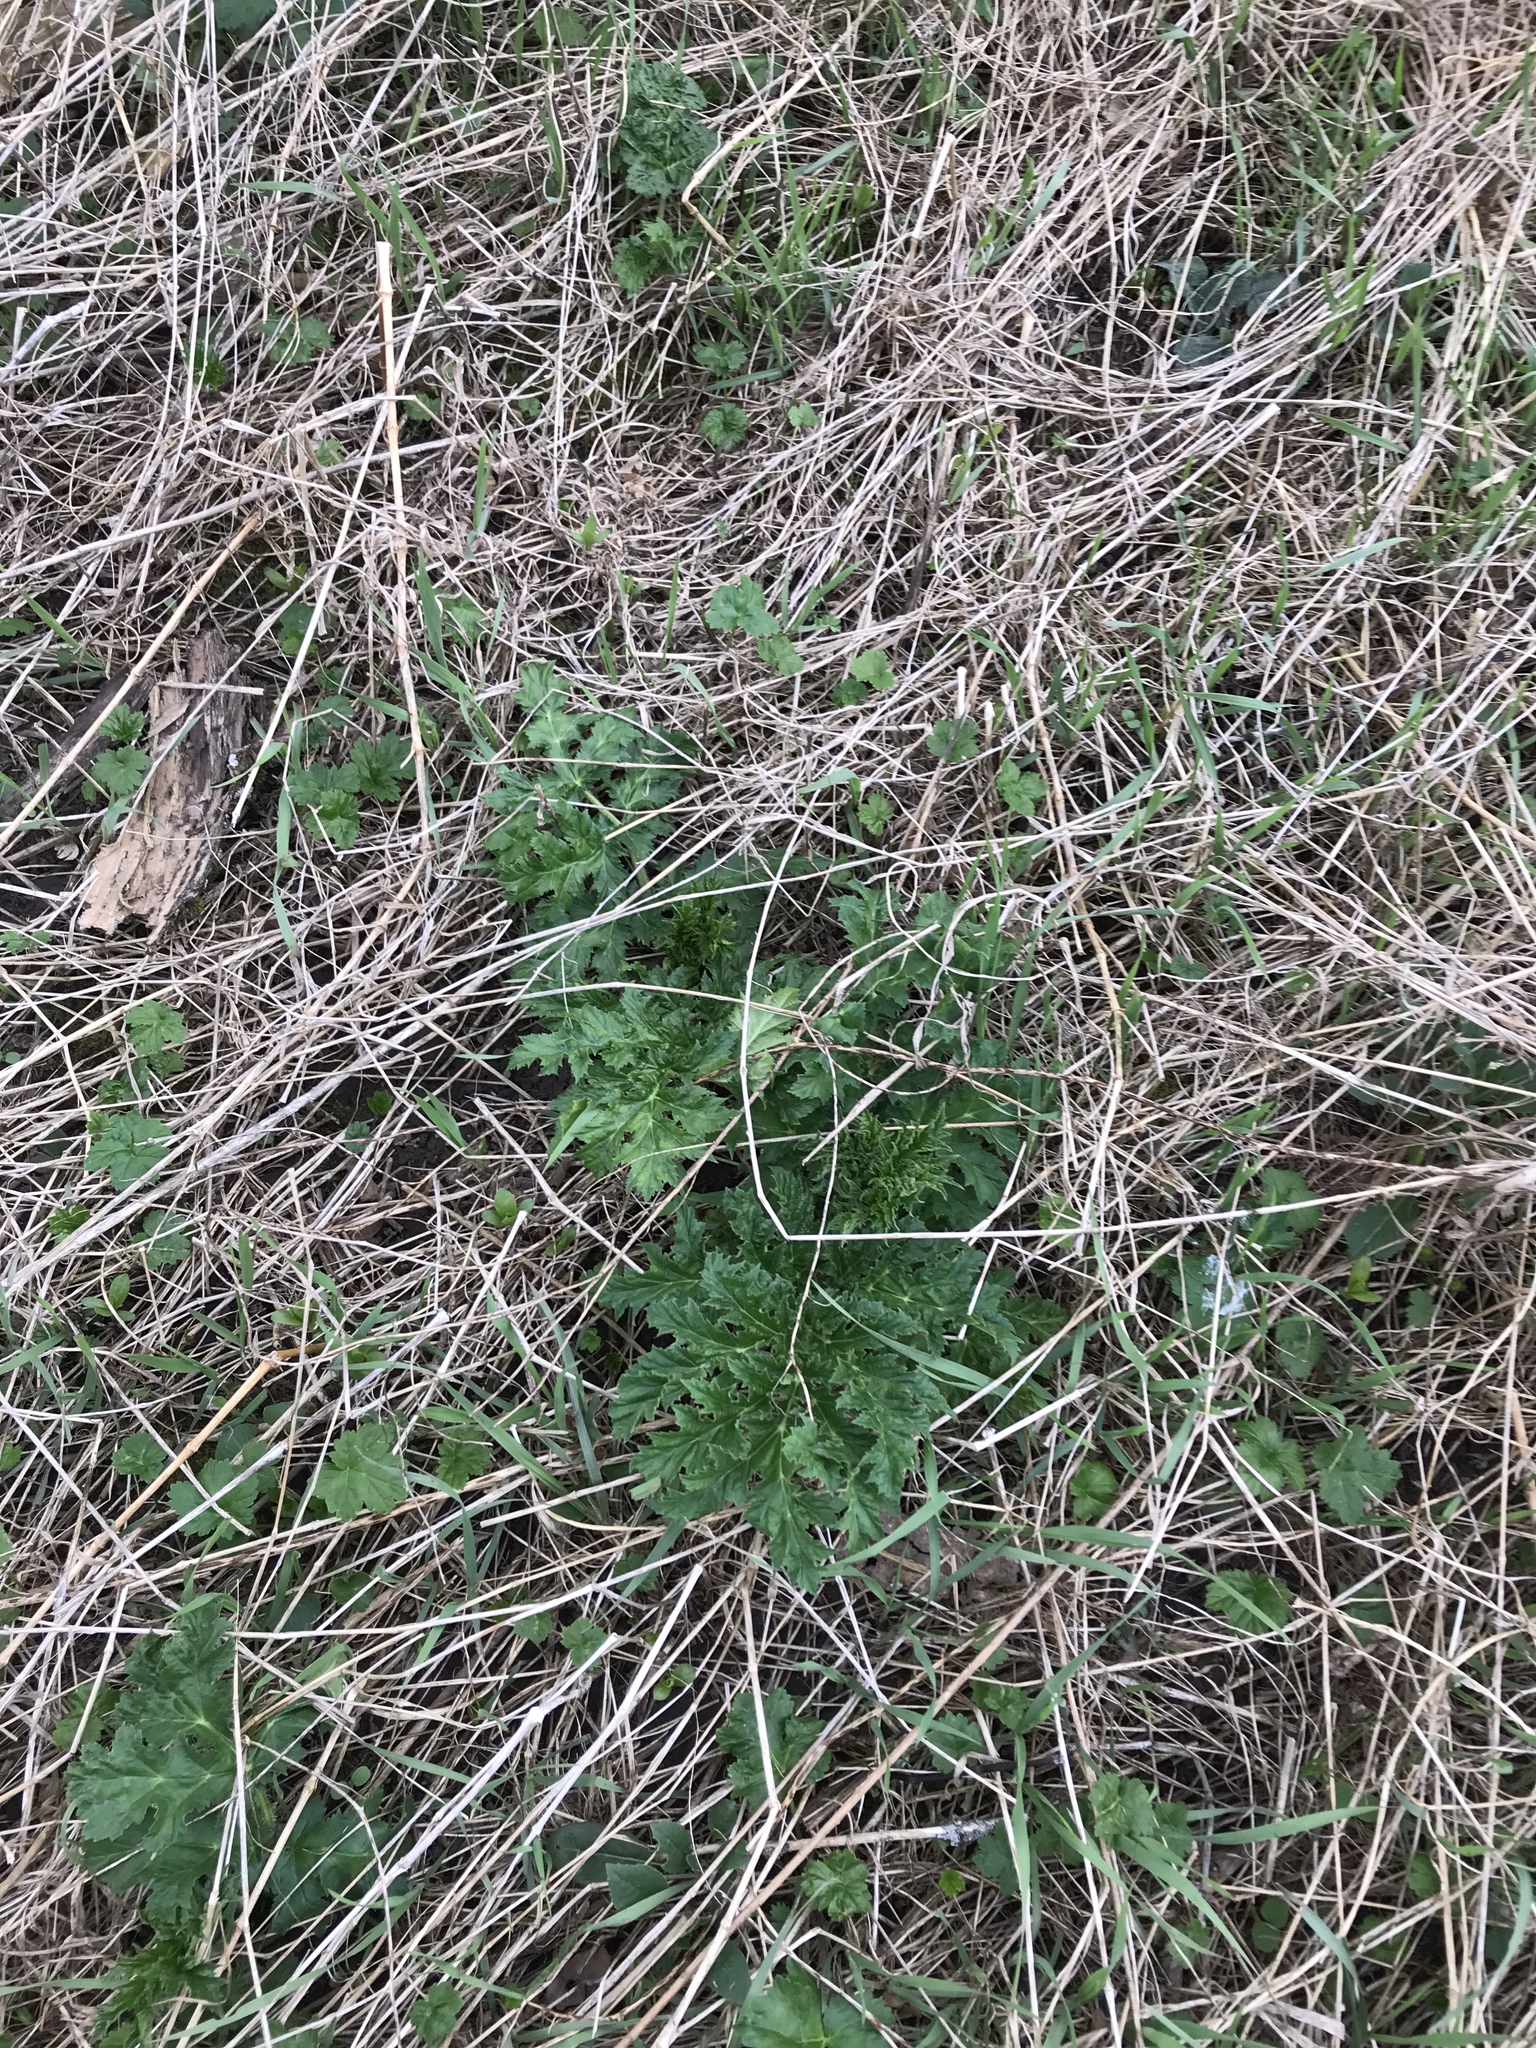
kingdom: Plantae
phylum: Tracheophyta
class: Magnoliopsida
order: Apiales
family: Apiaceae
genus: Heracleum
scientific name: Heracleum mantegazzianum
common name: Giant hogweed
